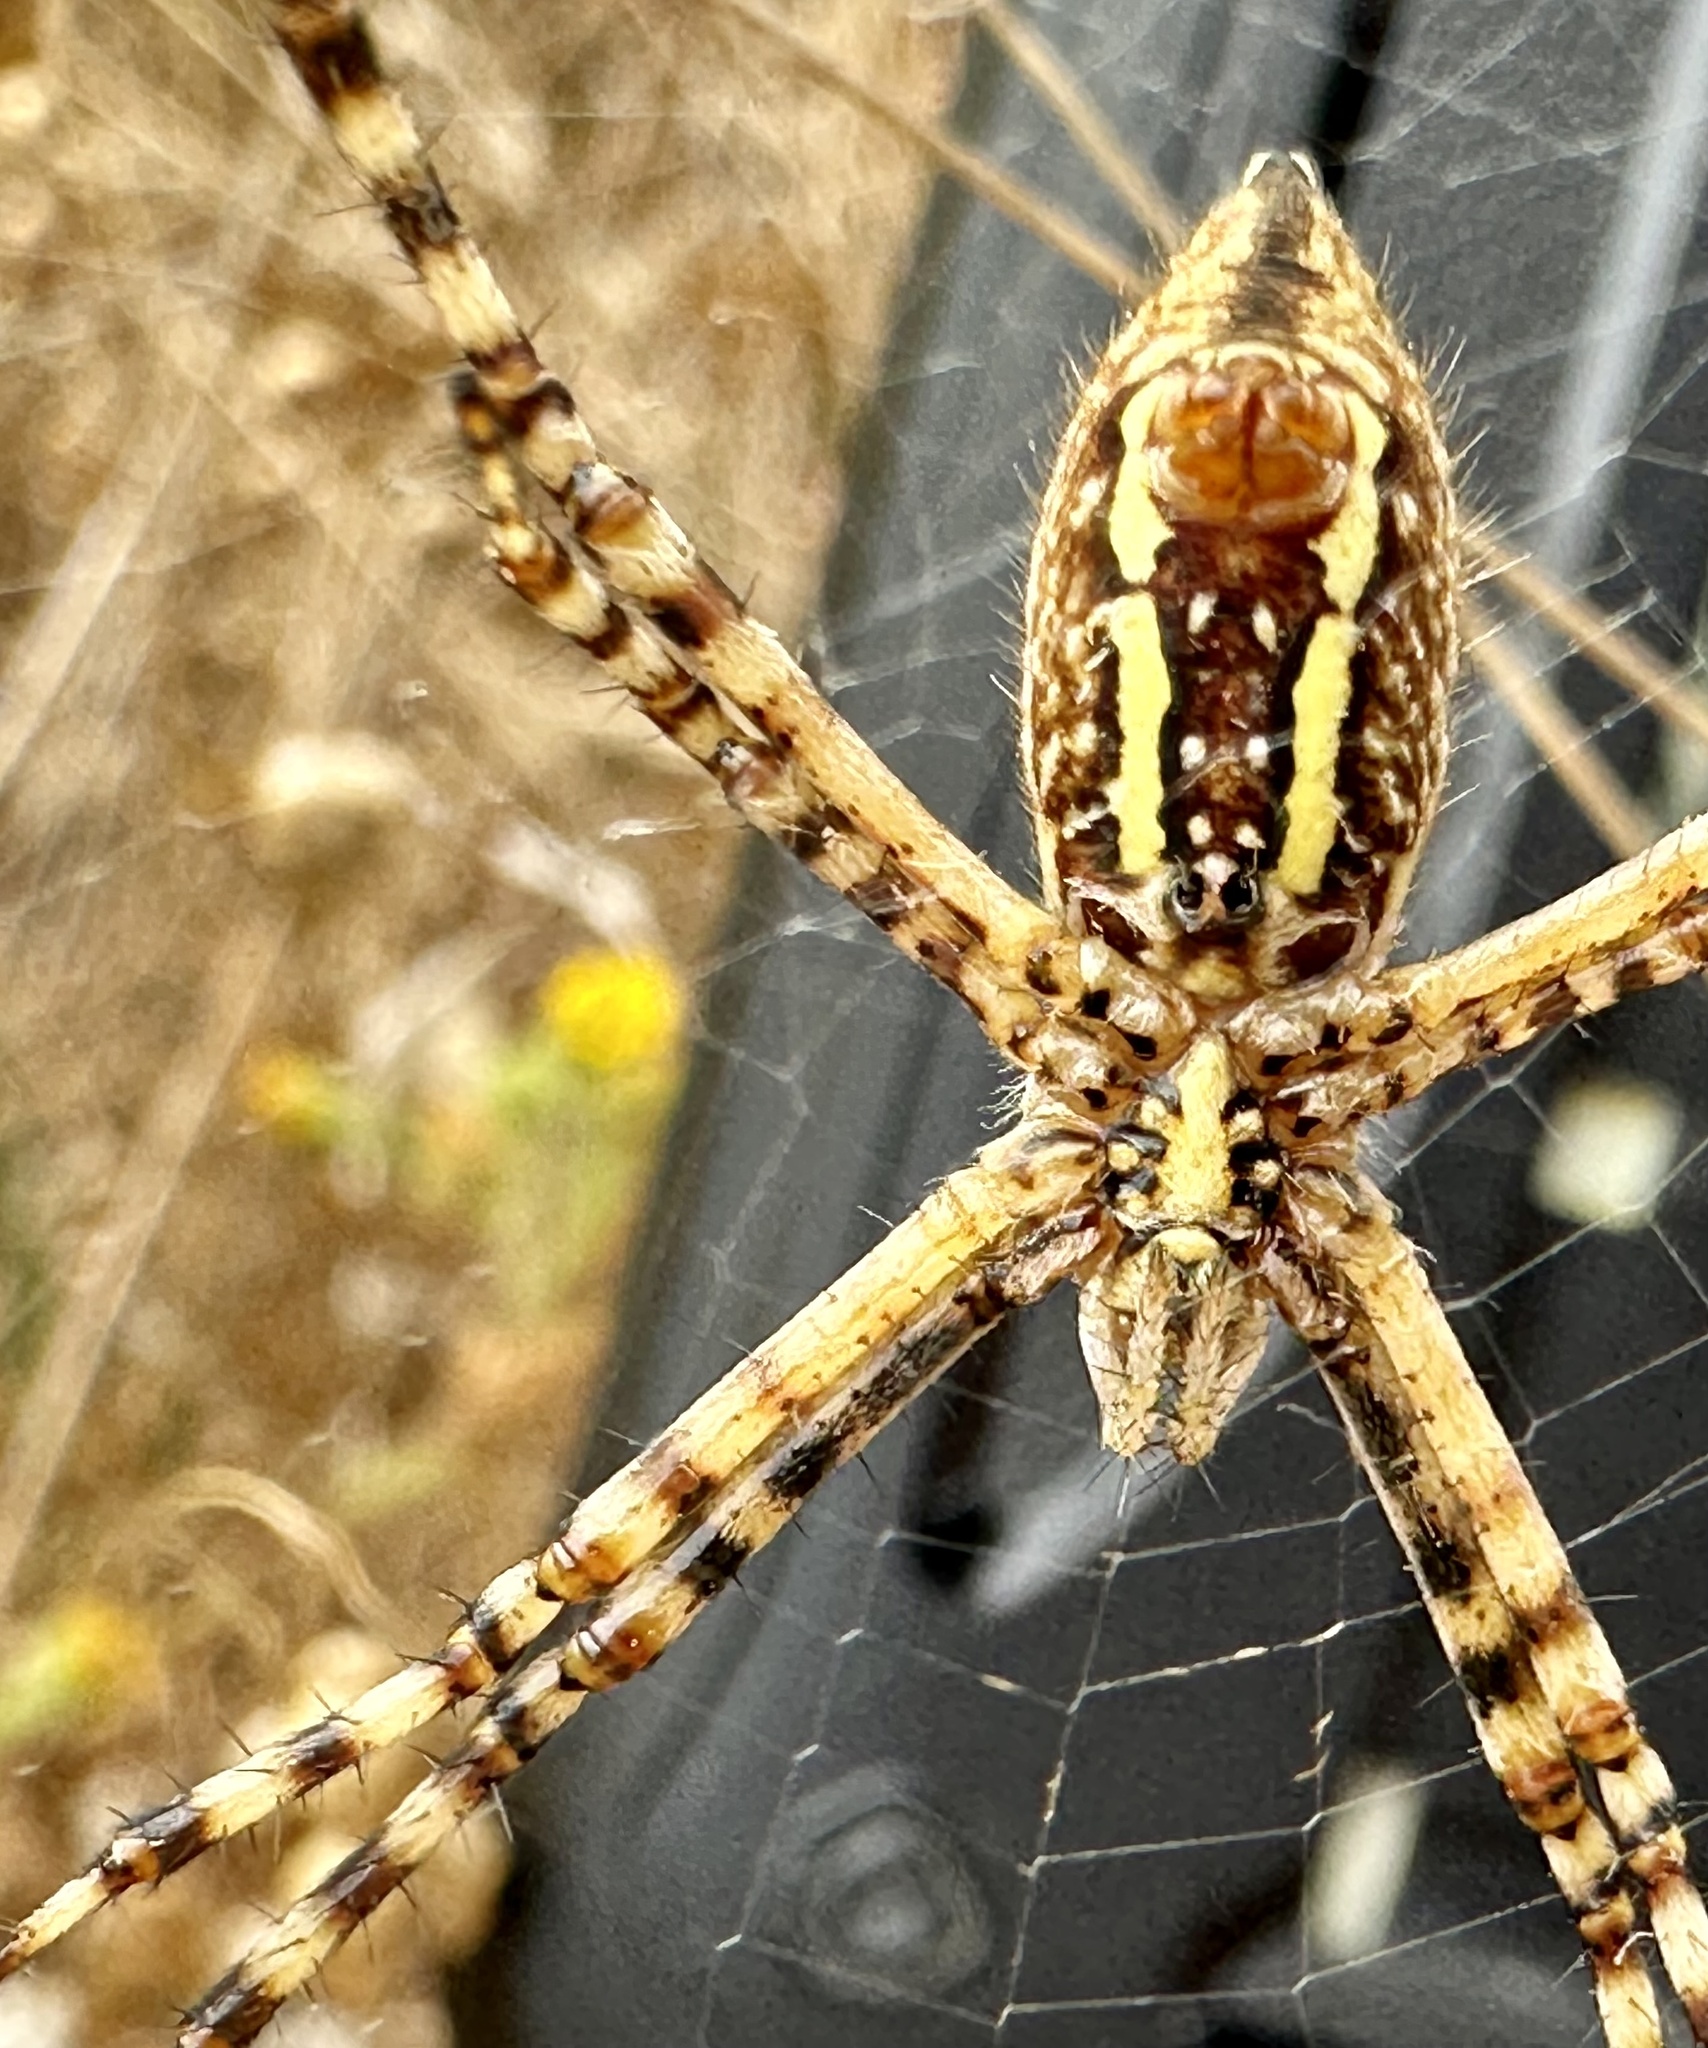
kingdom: Animalia
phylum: Arthropoda
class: Arachnida
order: Araneae
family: Araneidae
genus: Argiope
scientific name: Argiope trifasciata
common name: Banded garden spider
